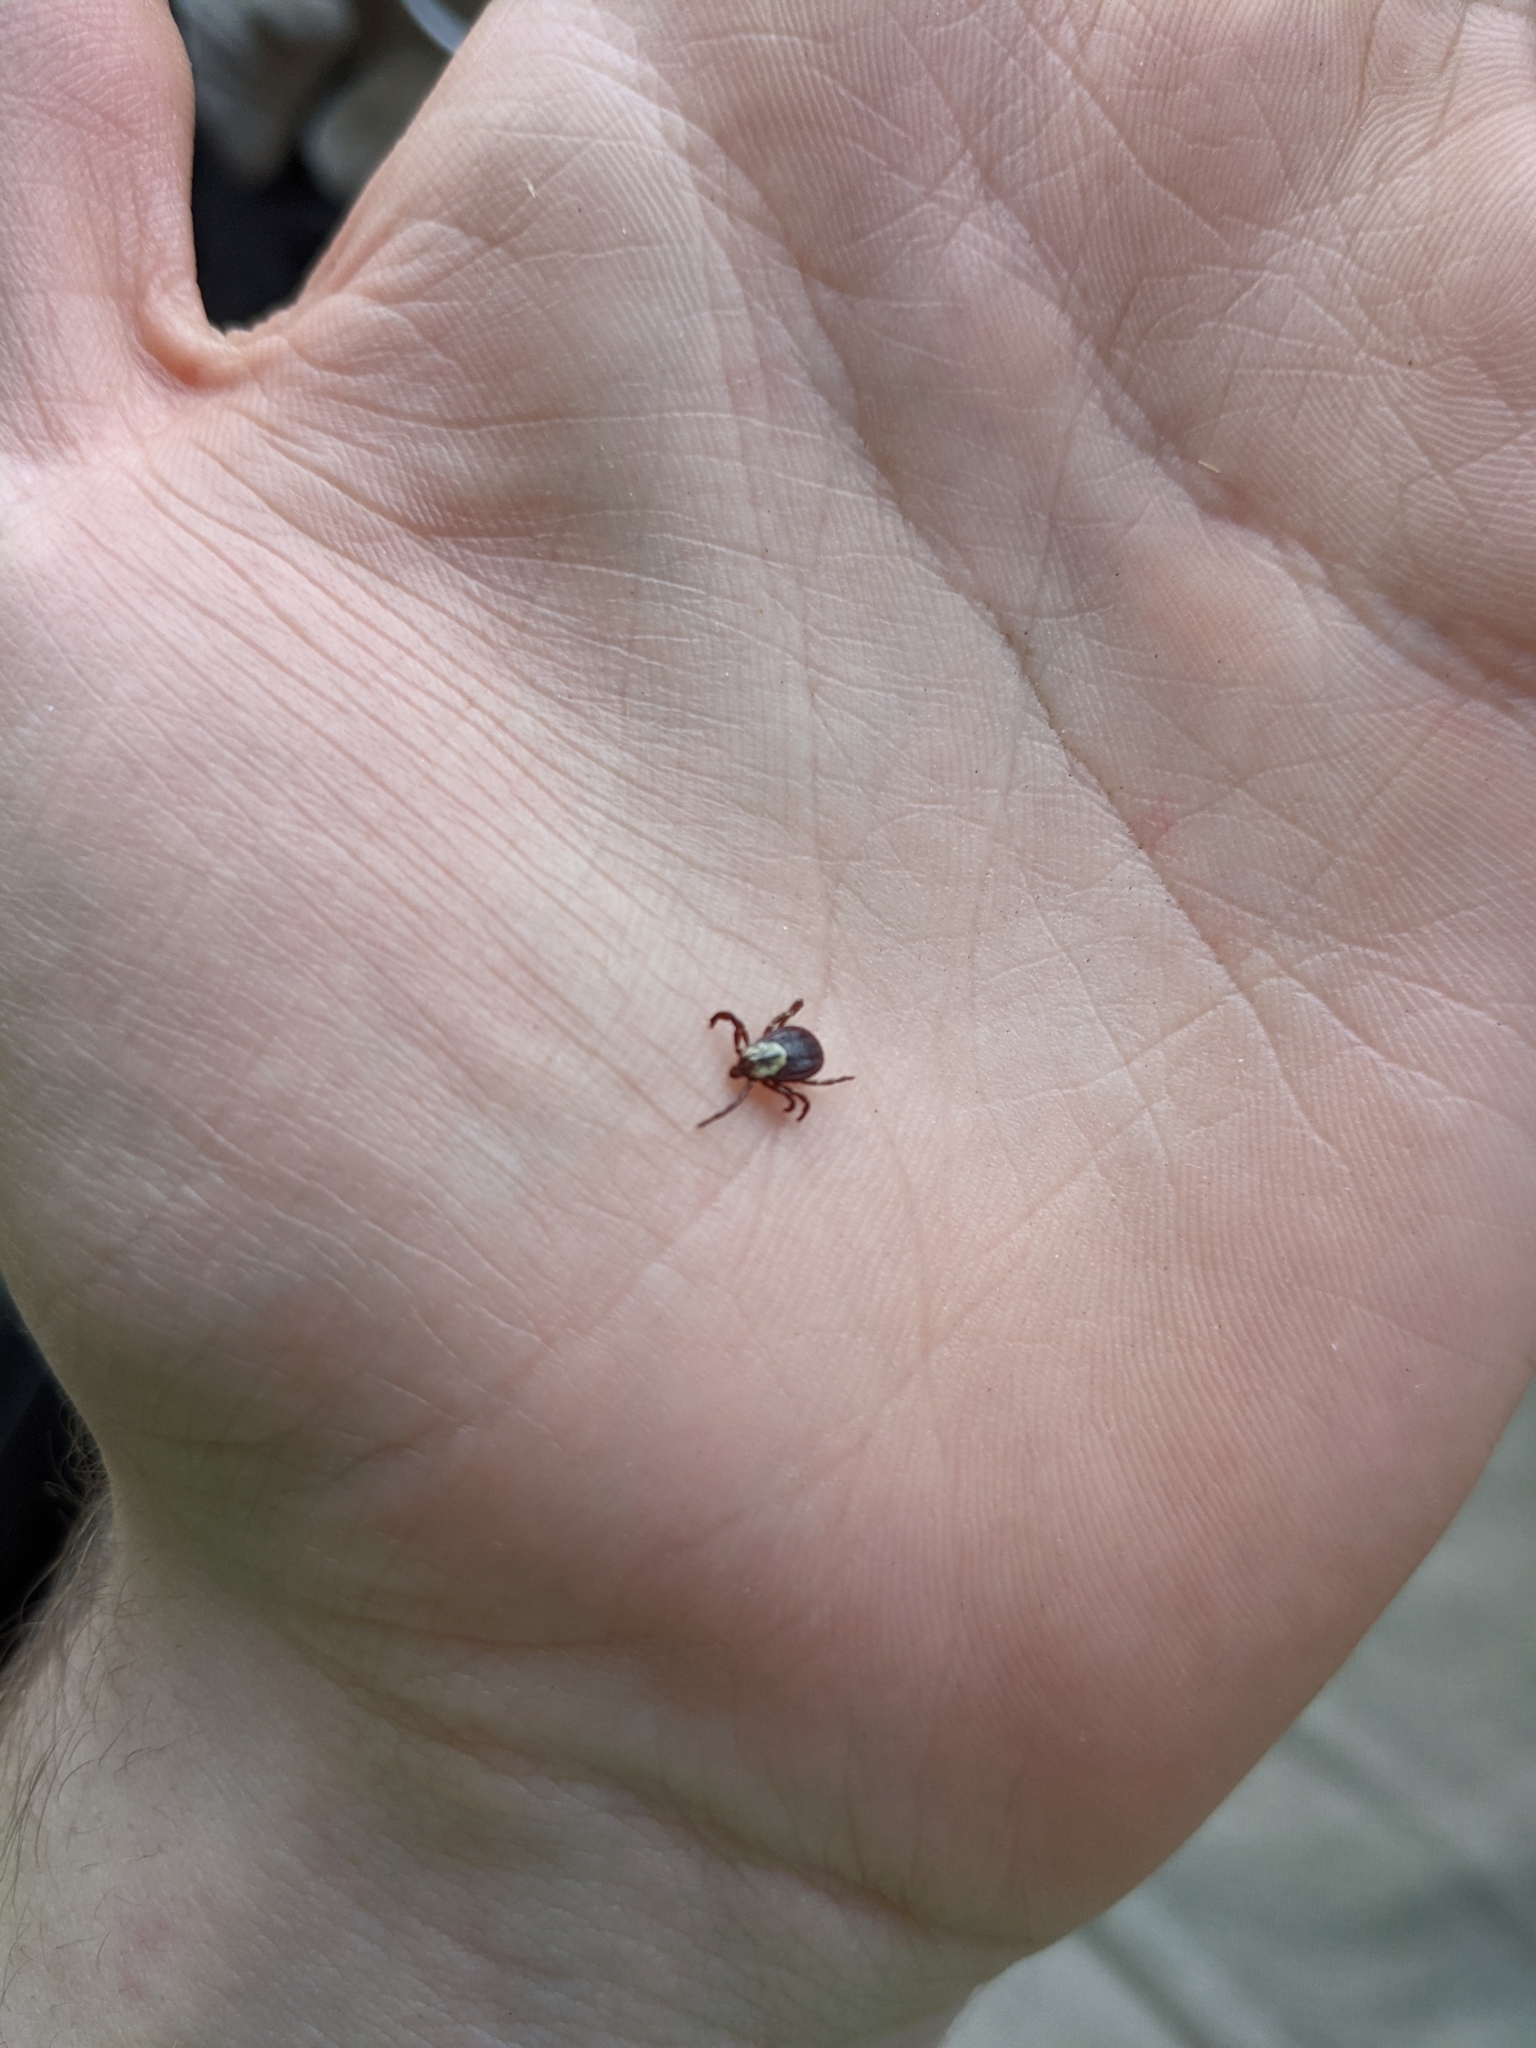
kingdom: Animalia
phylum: Arthropoda
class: Arachnida
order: Ixodida
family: Ixodidae
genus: Dermacentor
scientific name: Dermacentor variabilis
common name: American dog tick
